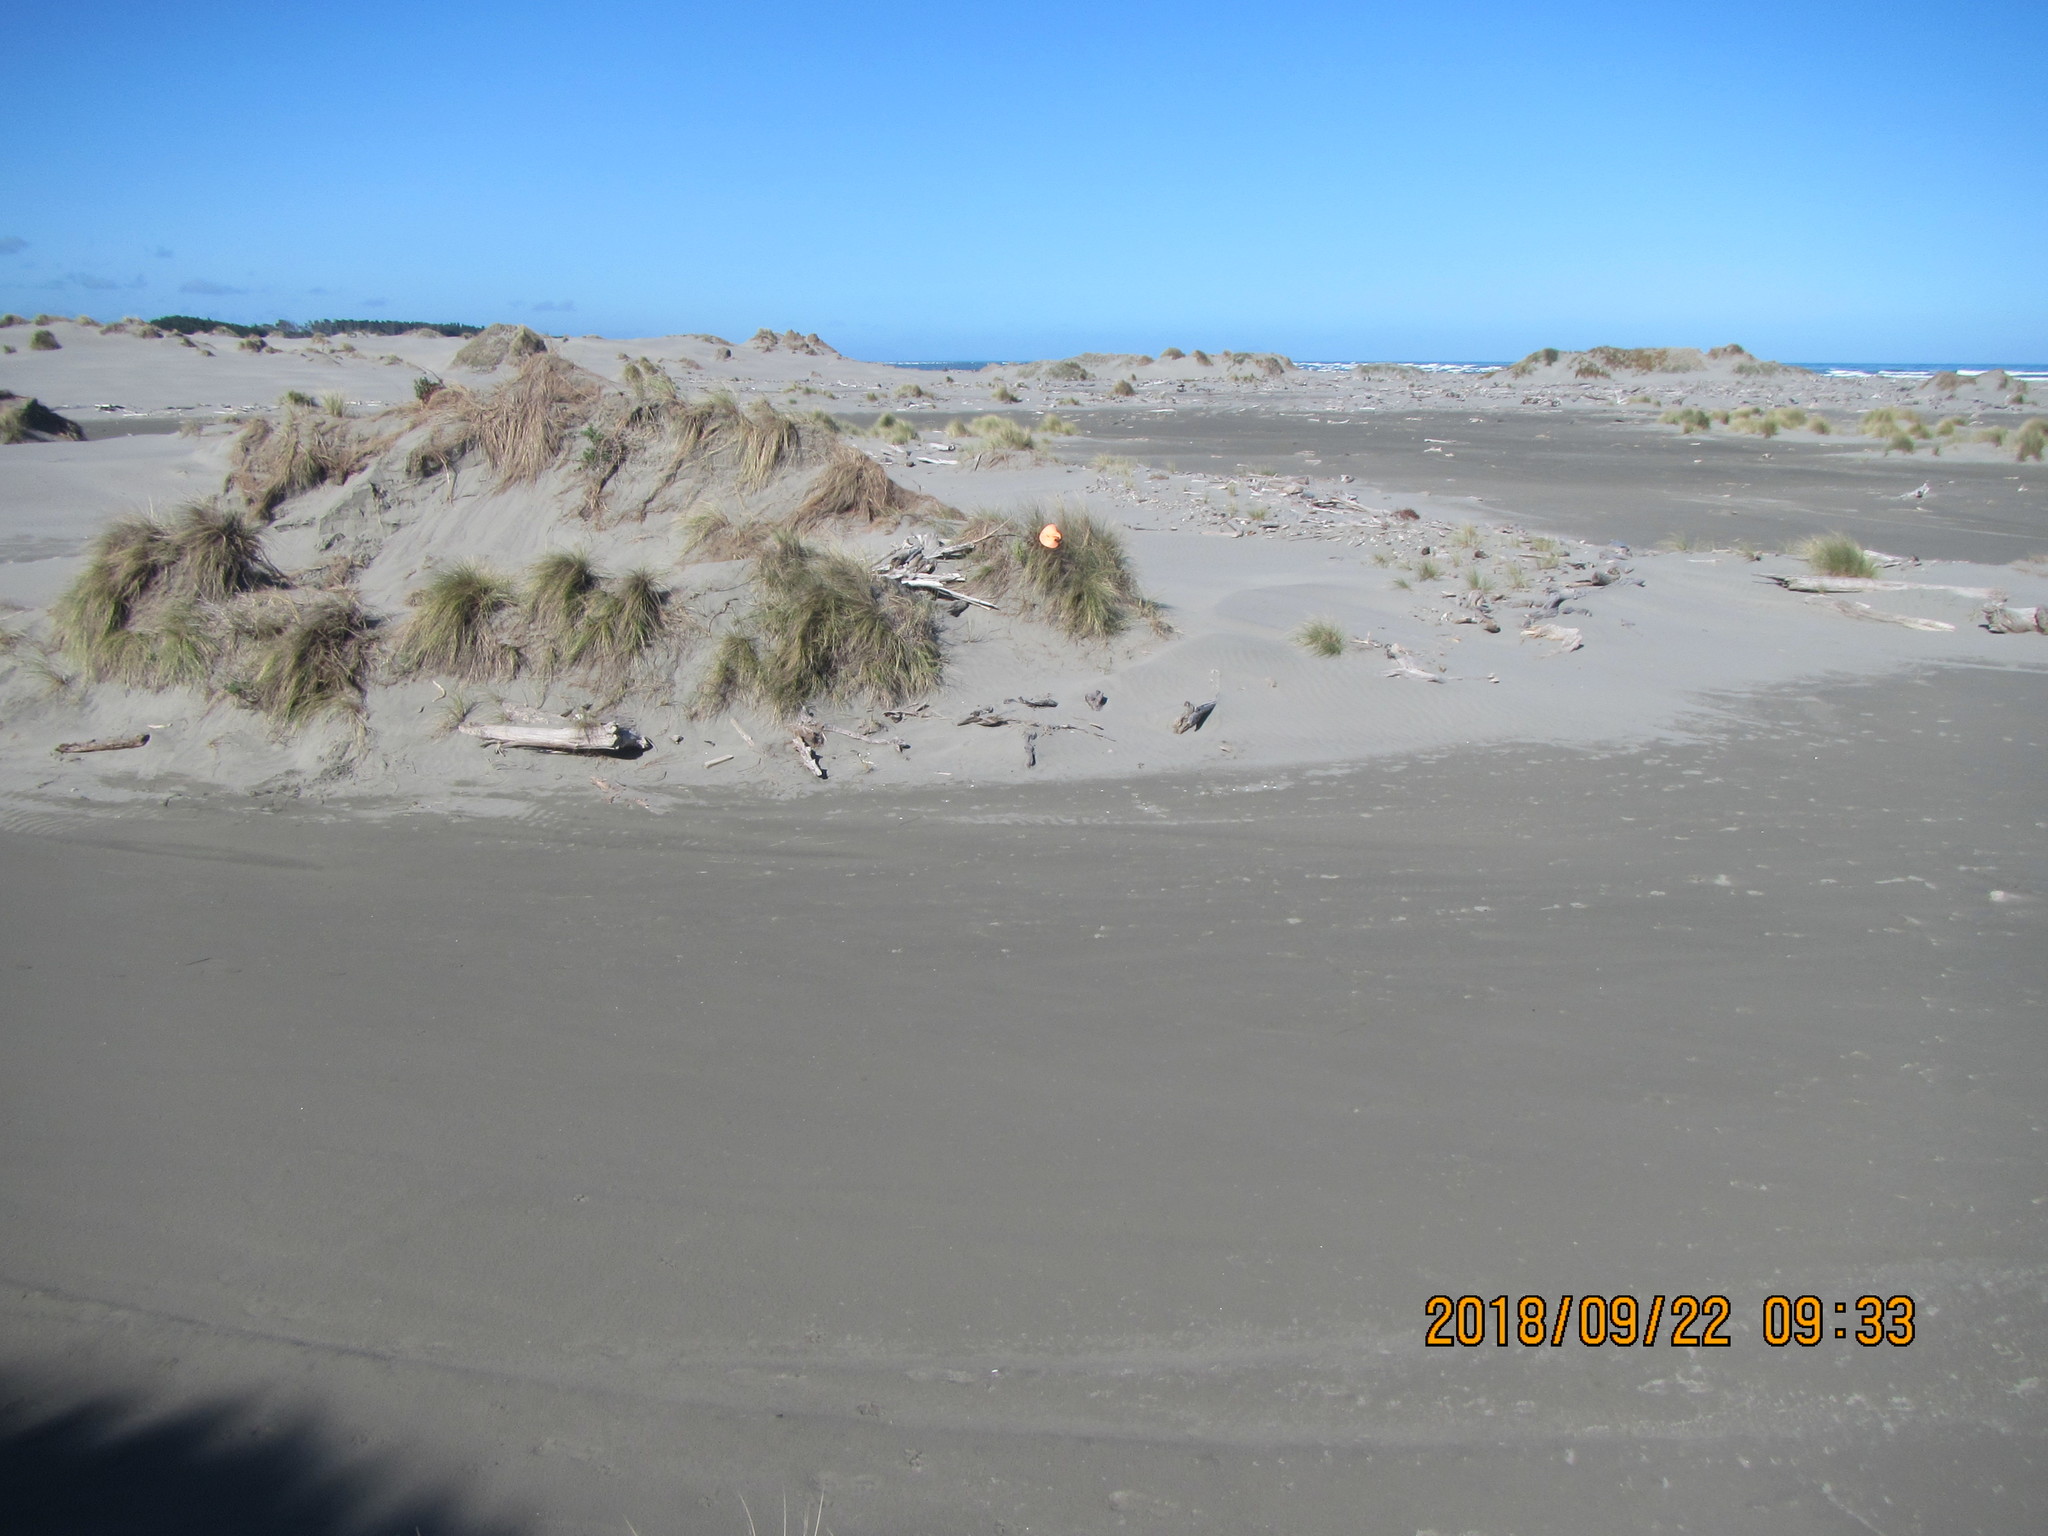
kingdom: Plantae
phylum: Tracheophyta
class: Magnoliopsida
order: Asterales
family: Asteraceae
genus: Sonchus
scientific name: Sonchus oleraceus
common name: Common sowthistle
